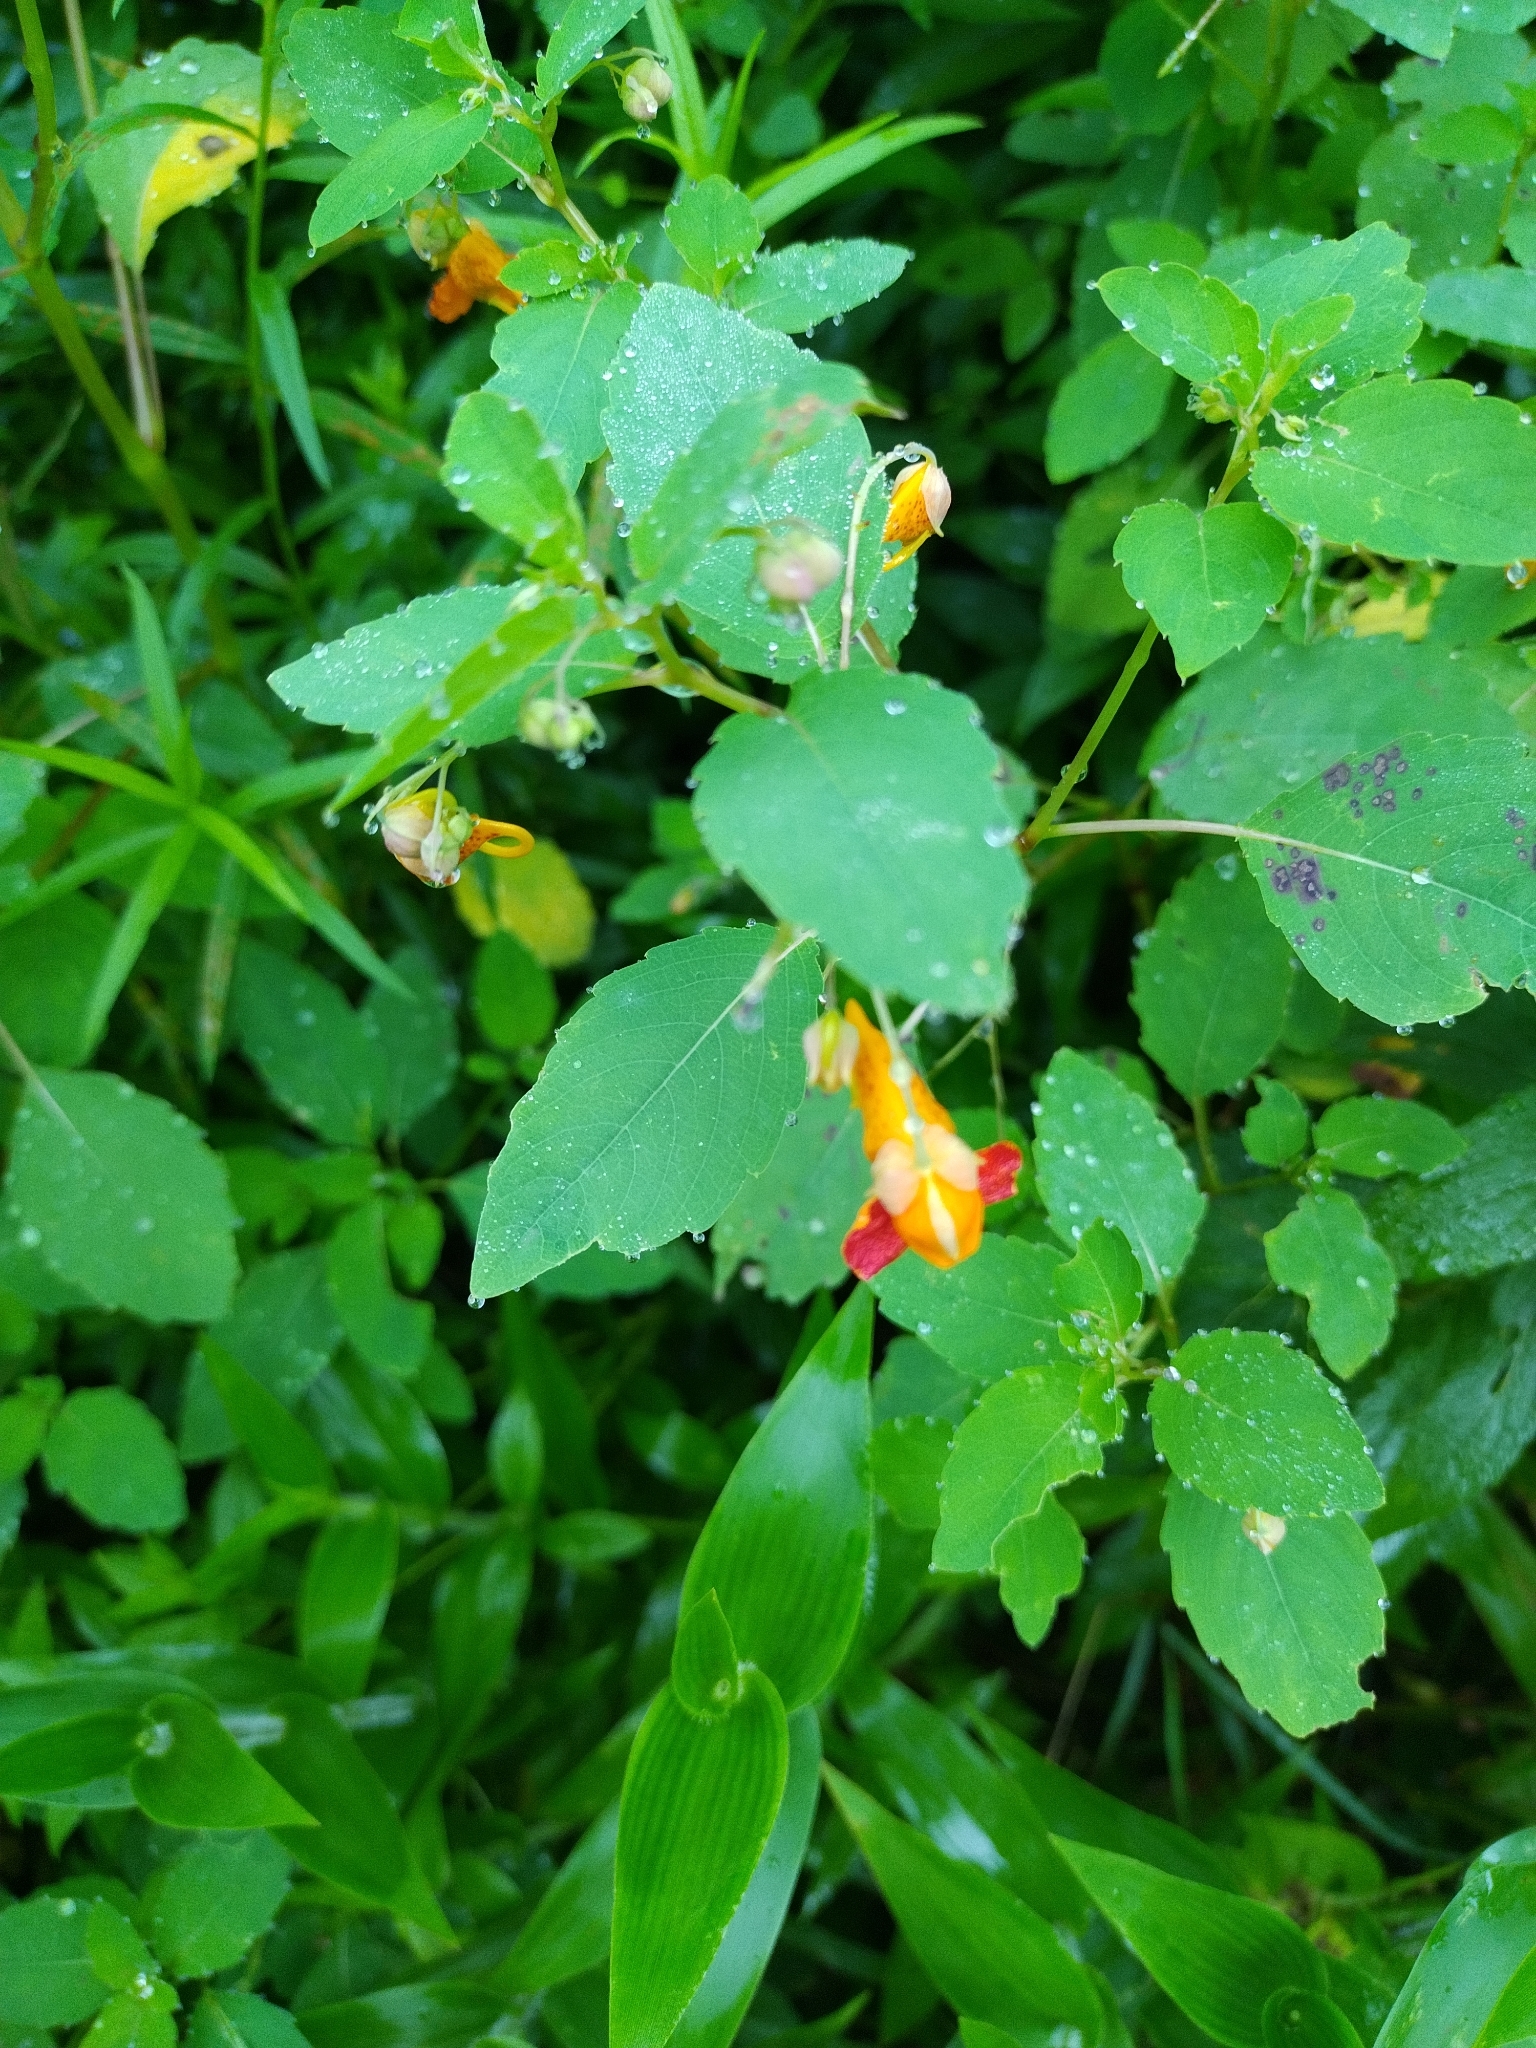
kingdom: Plantae
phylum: Tracheophyta
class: Magnoliopsida
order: Ericales
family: Balsaminaceae
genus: Impatiens
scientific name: Impatiens capensis
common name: Orange balsam
